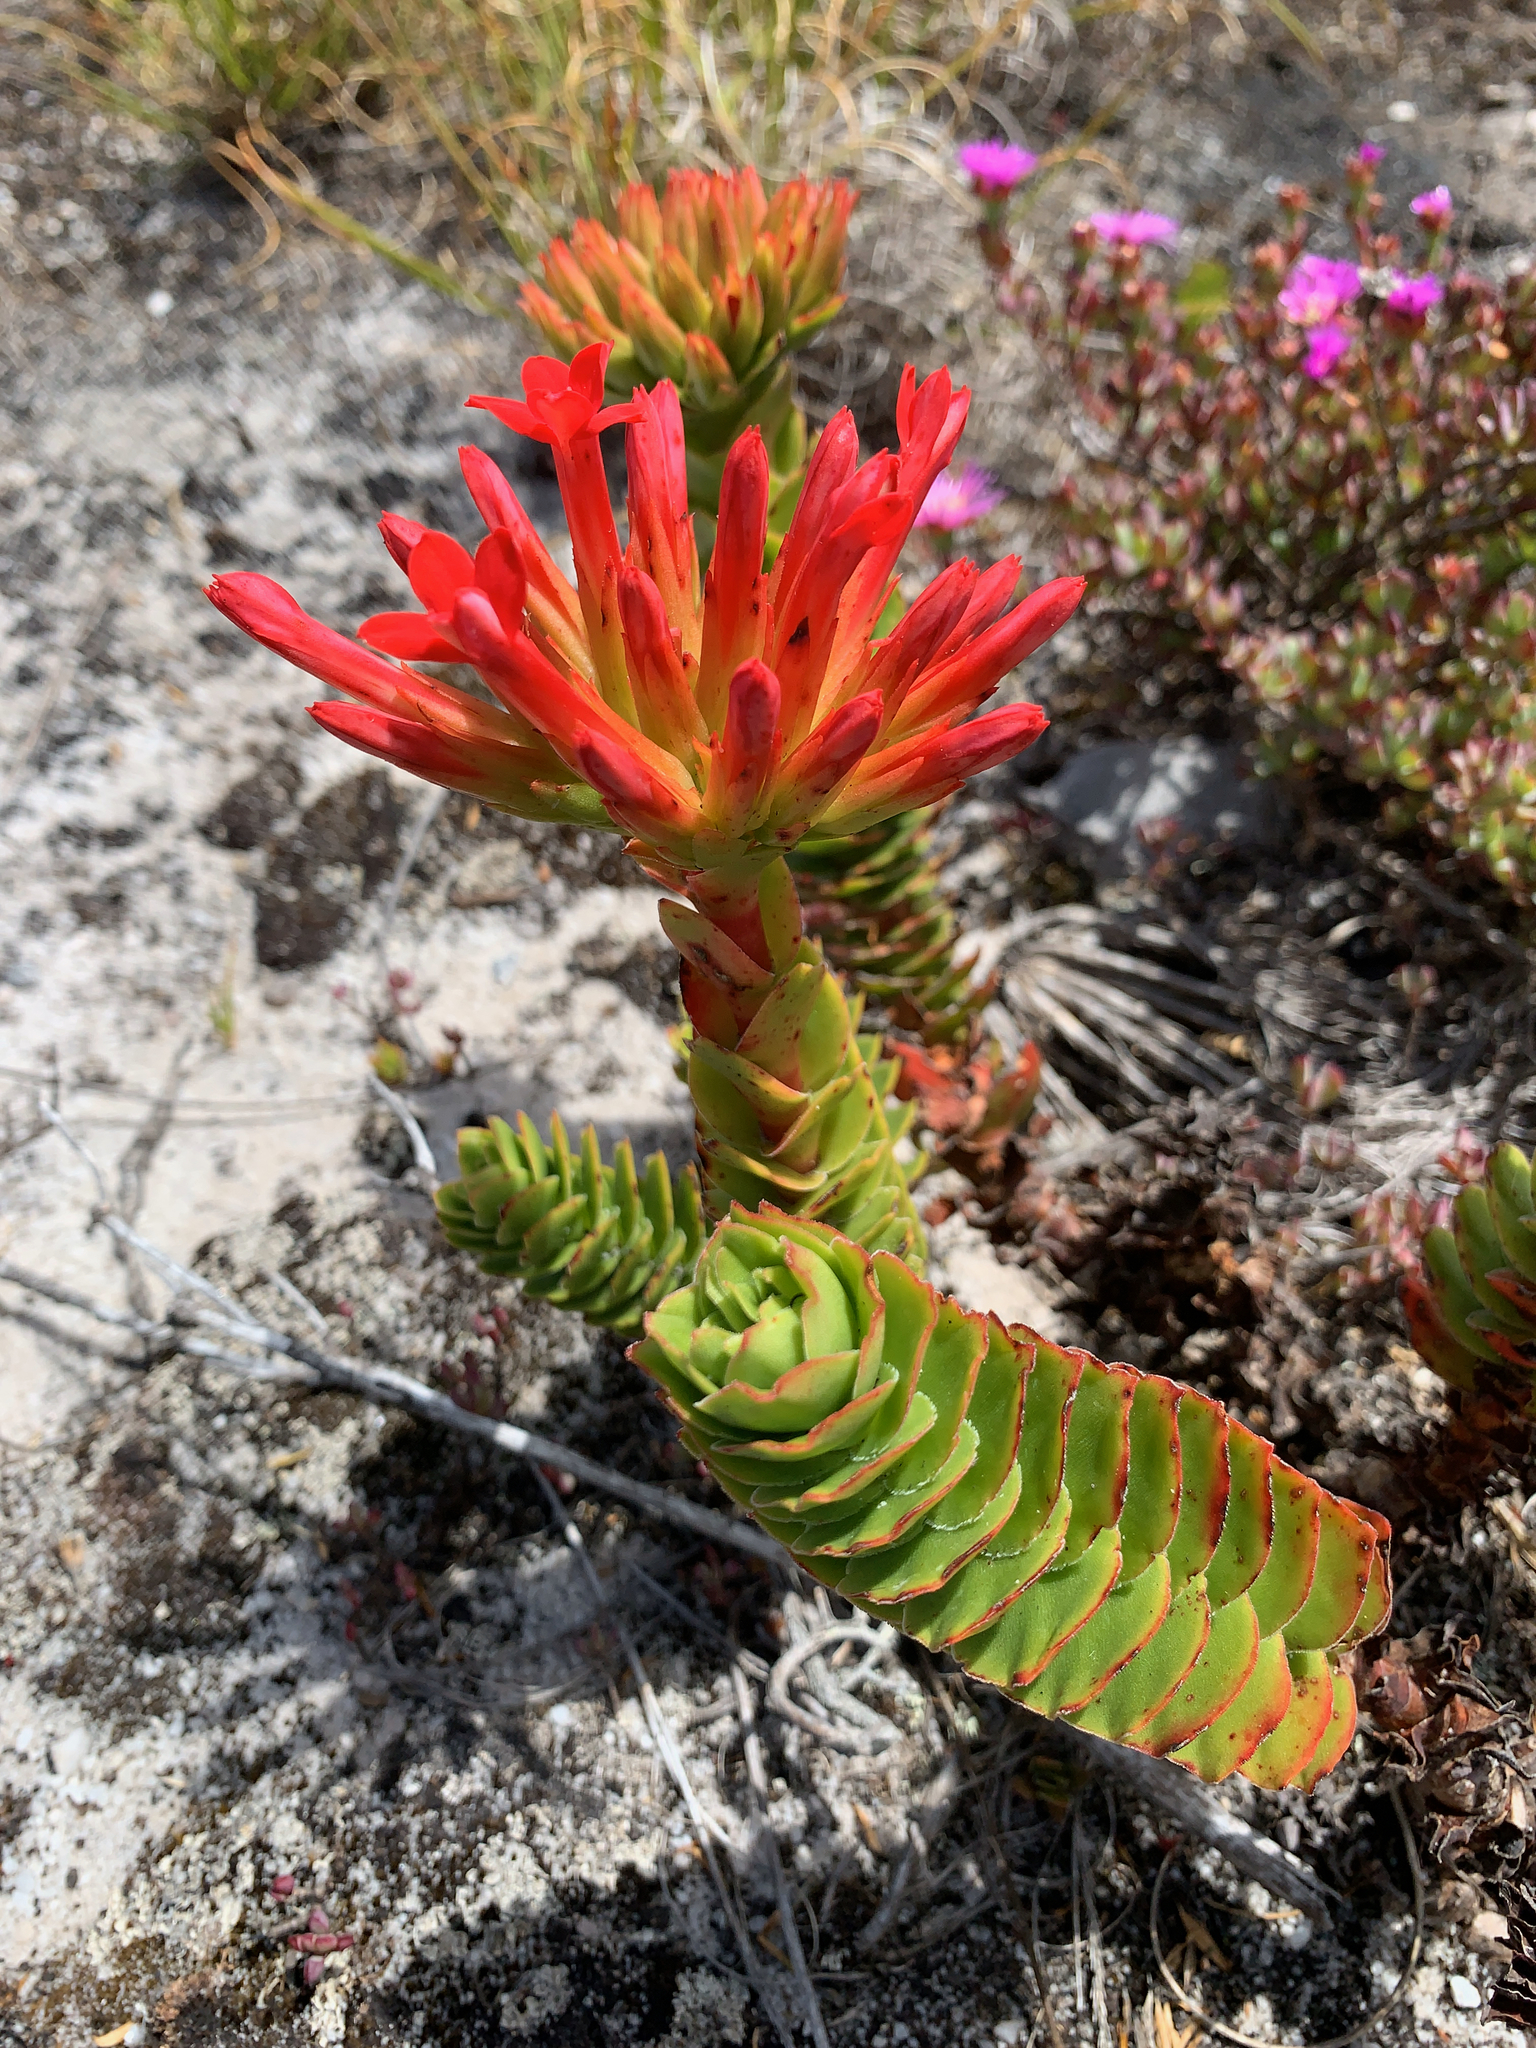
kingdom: Plantae
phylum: Tracheophyta
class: Magnoliopsida
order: Saxifragales
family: Crassulaceae
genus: Crassula
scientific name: Crassula coccinea
